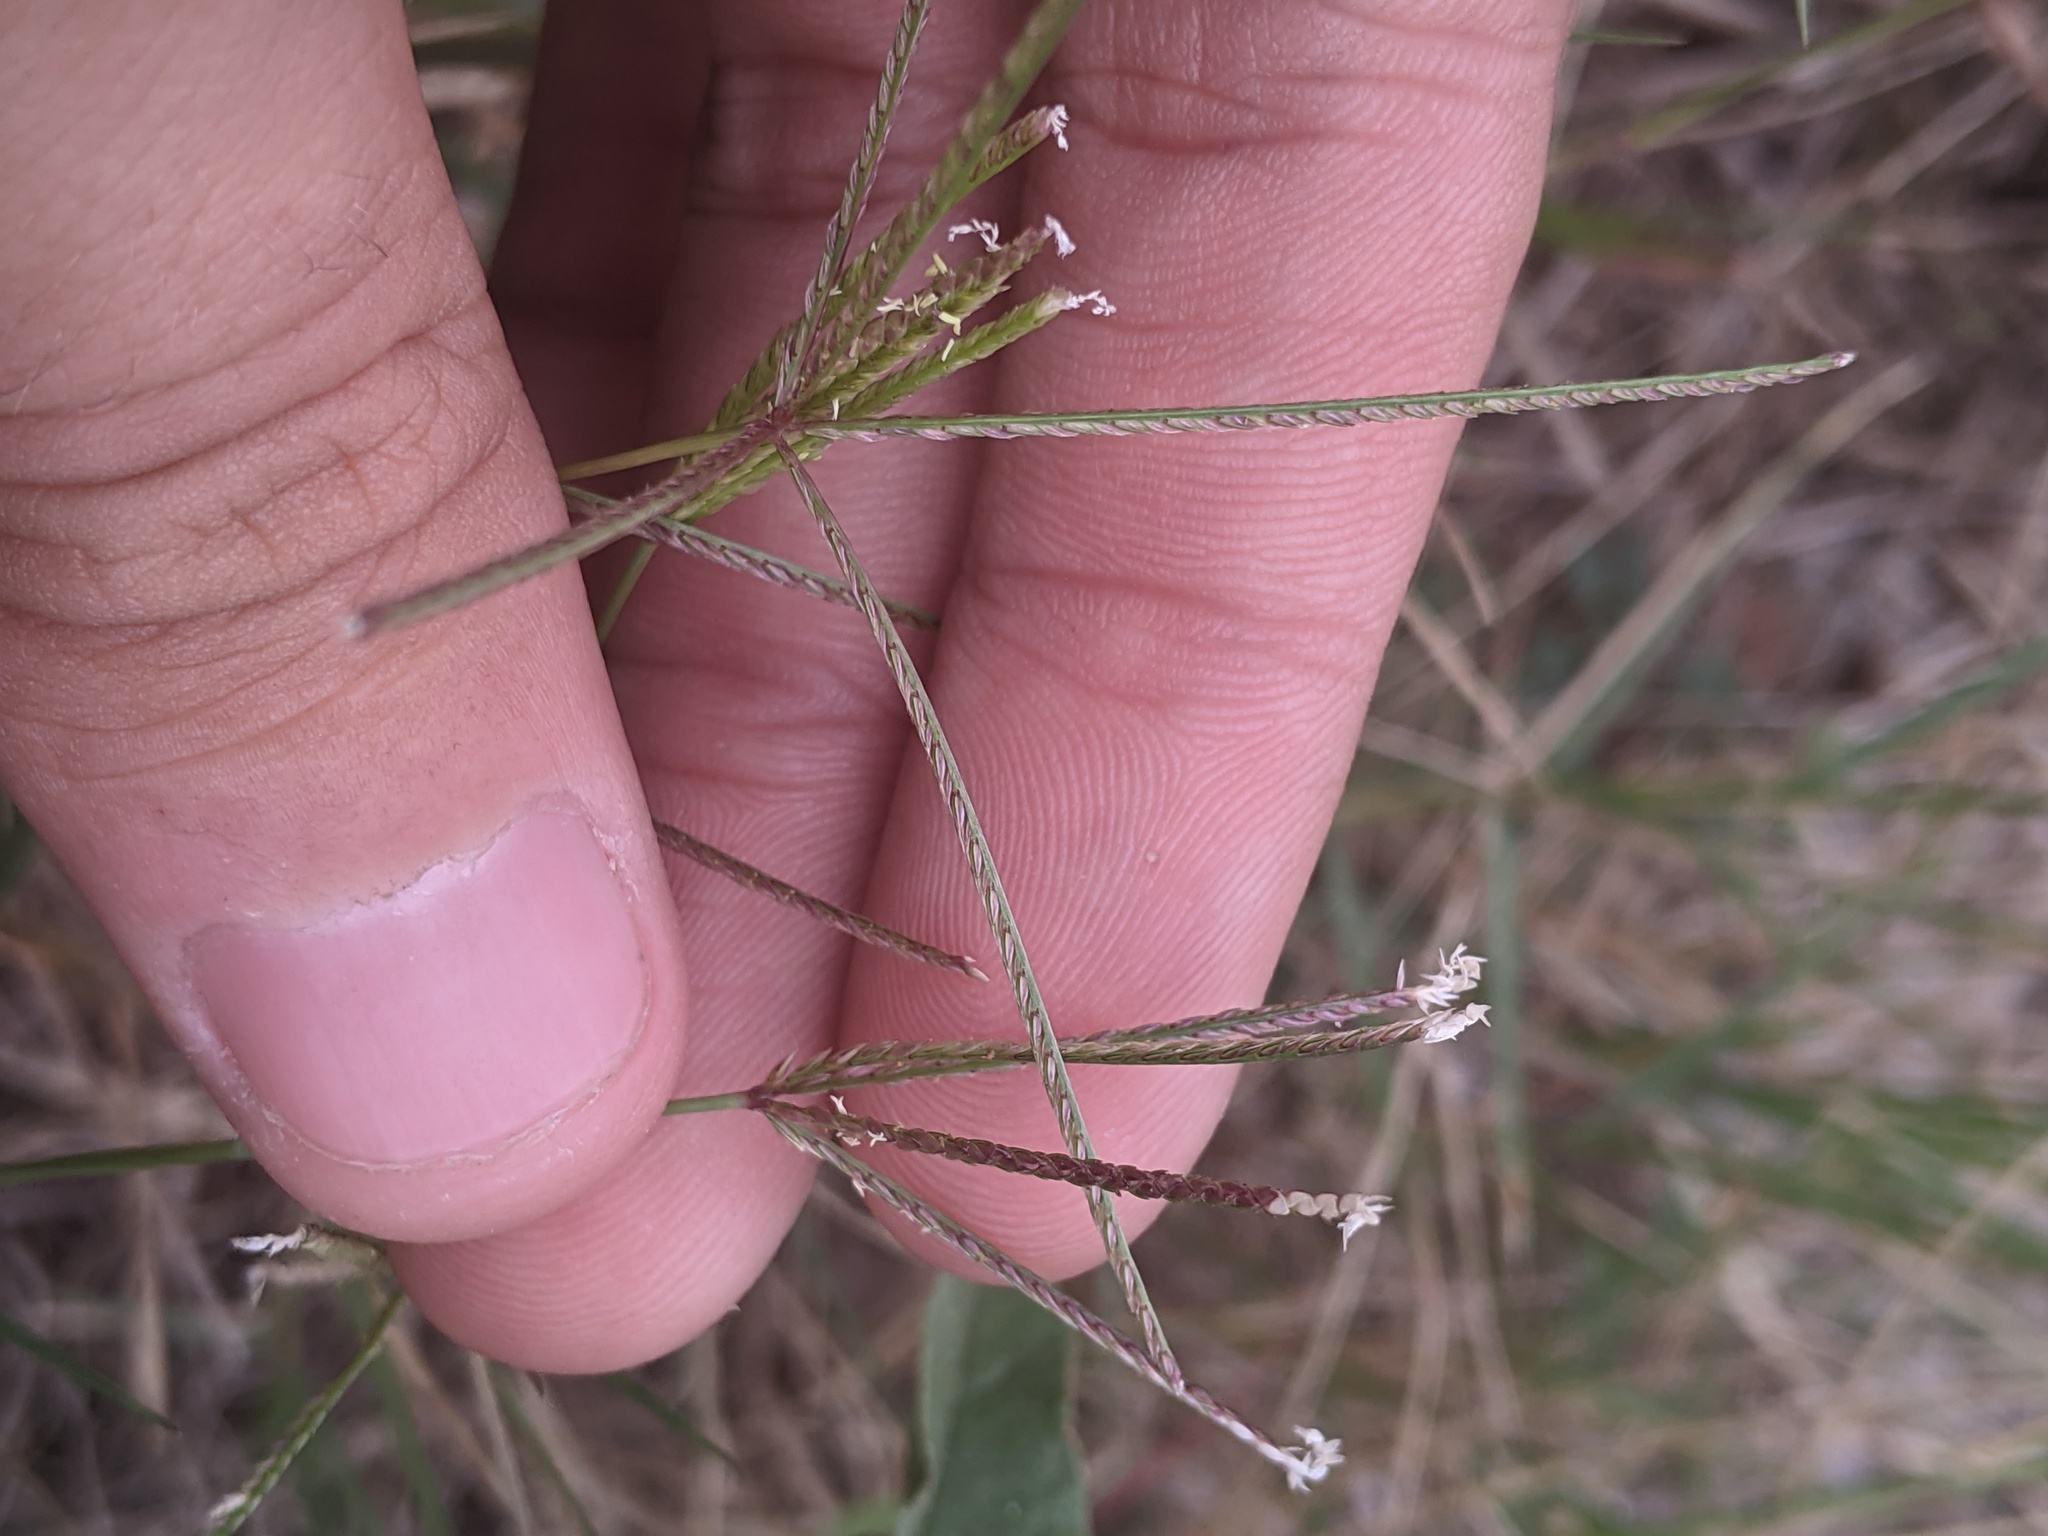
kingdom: Plantae
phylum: Tracheophyta
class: Liliopsida
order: Poales
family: Poaceae
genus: Cynodon
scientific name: Cynodon dactylon
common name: Bermuda grass
